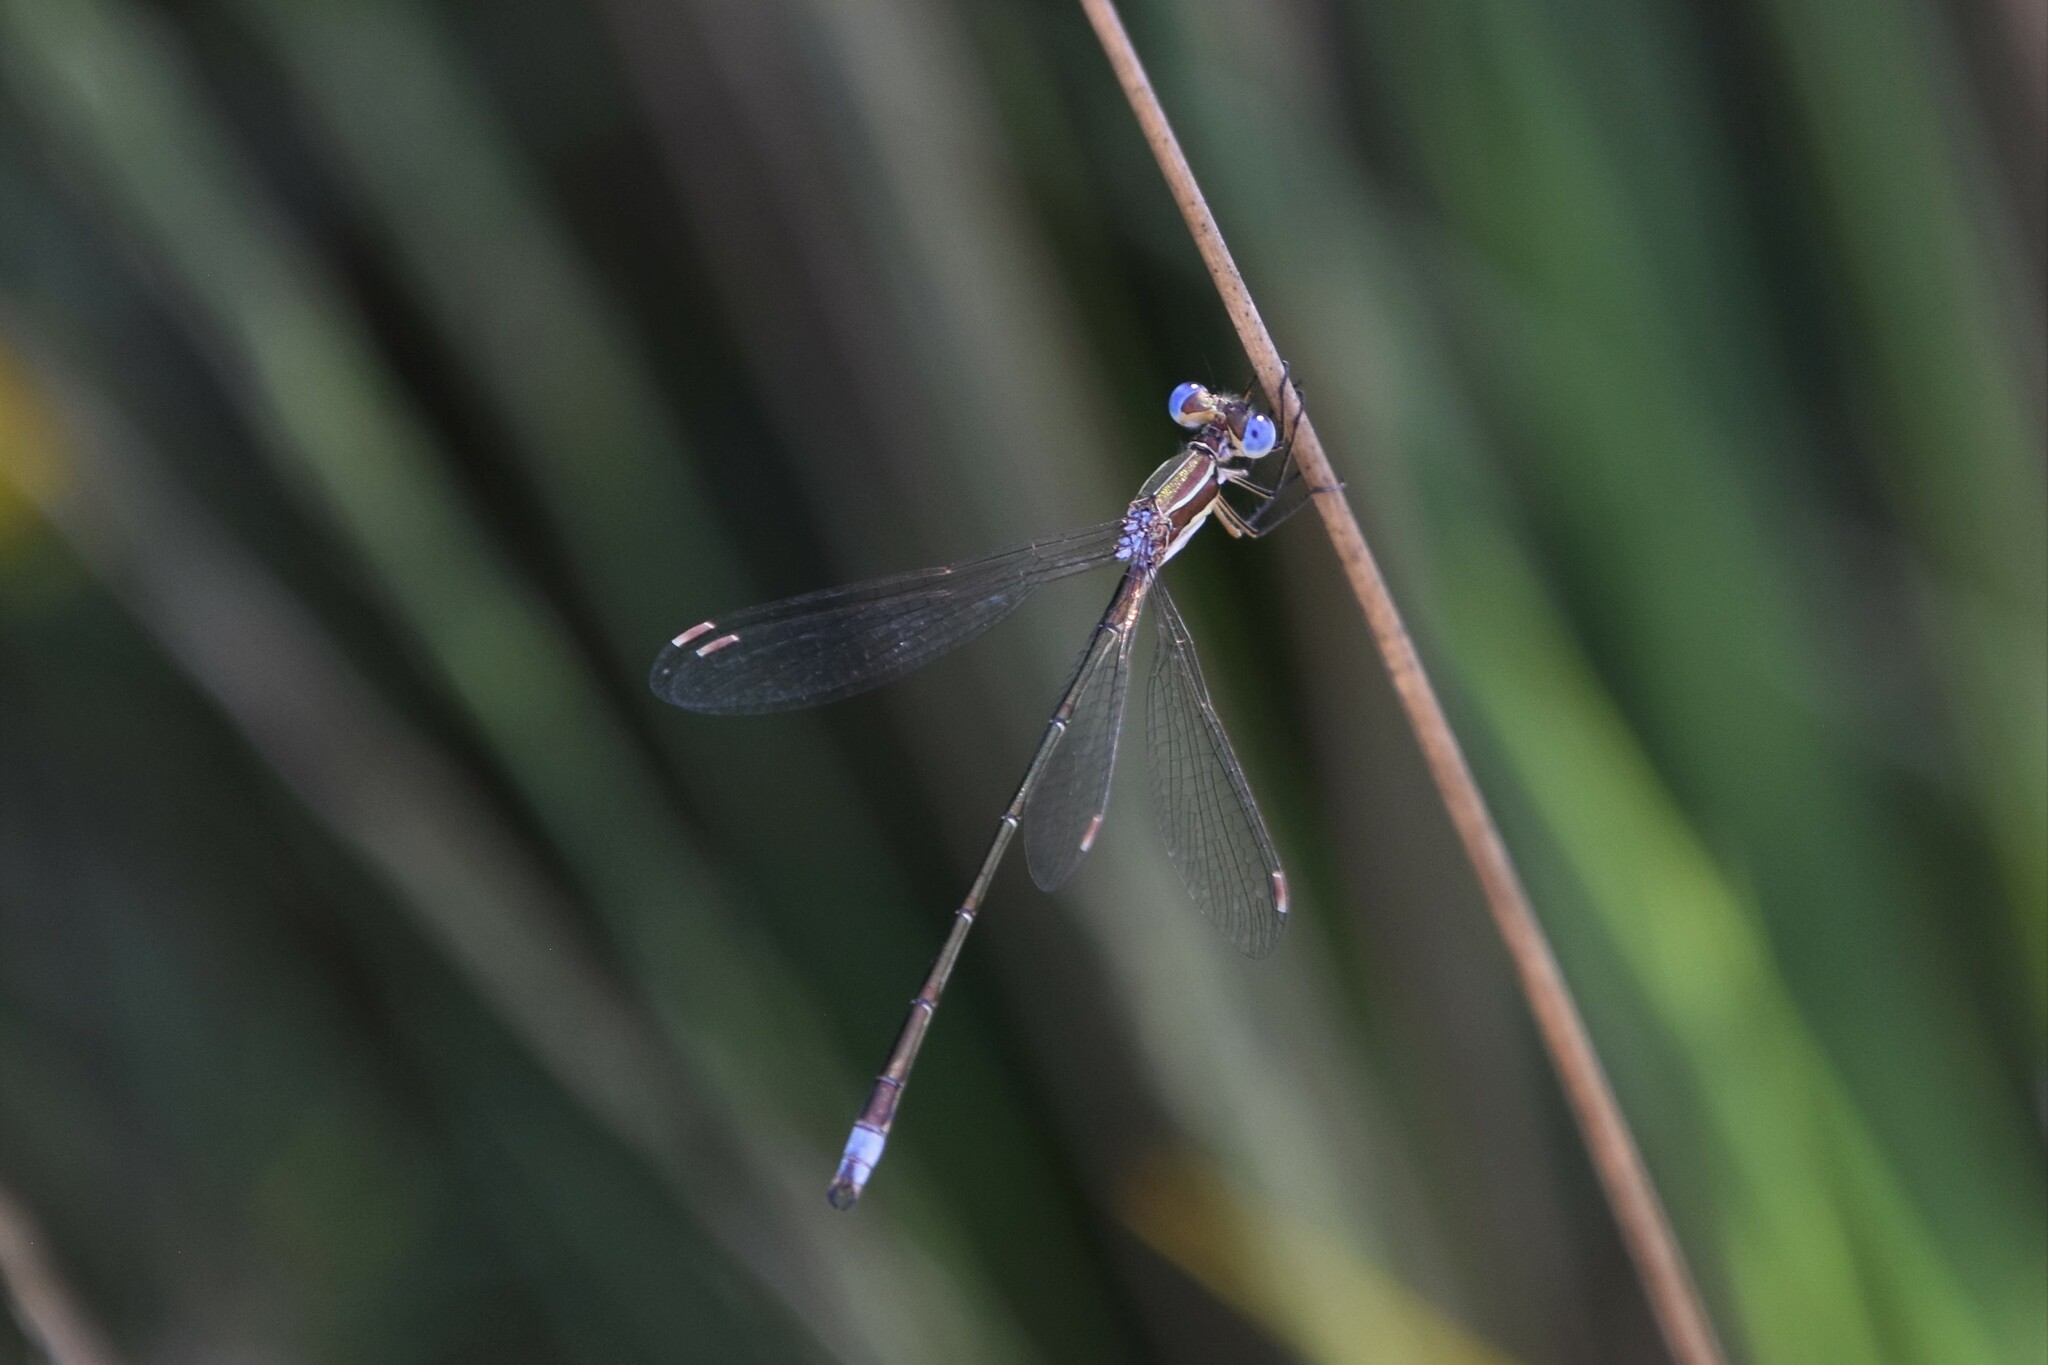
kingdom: Animalia
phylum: Arthropoda
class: Insecta
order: Odonata
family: Lestidae
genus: Lestes
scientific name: Lestes virens
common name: Small emerald spreadwing
